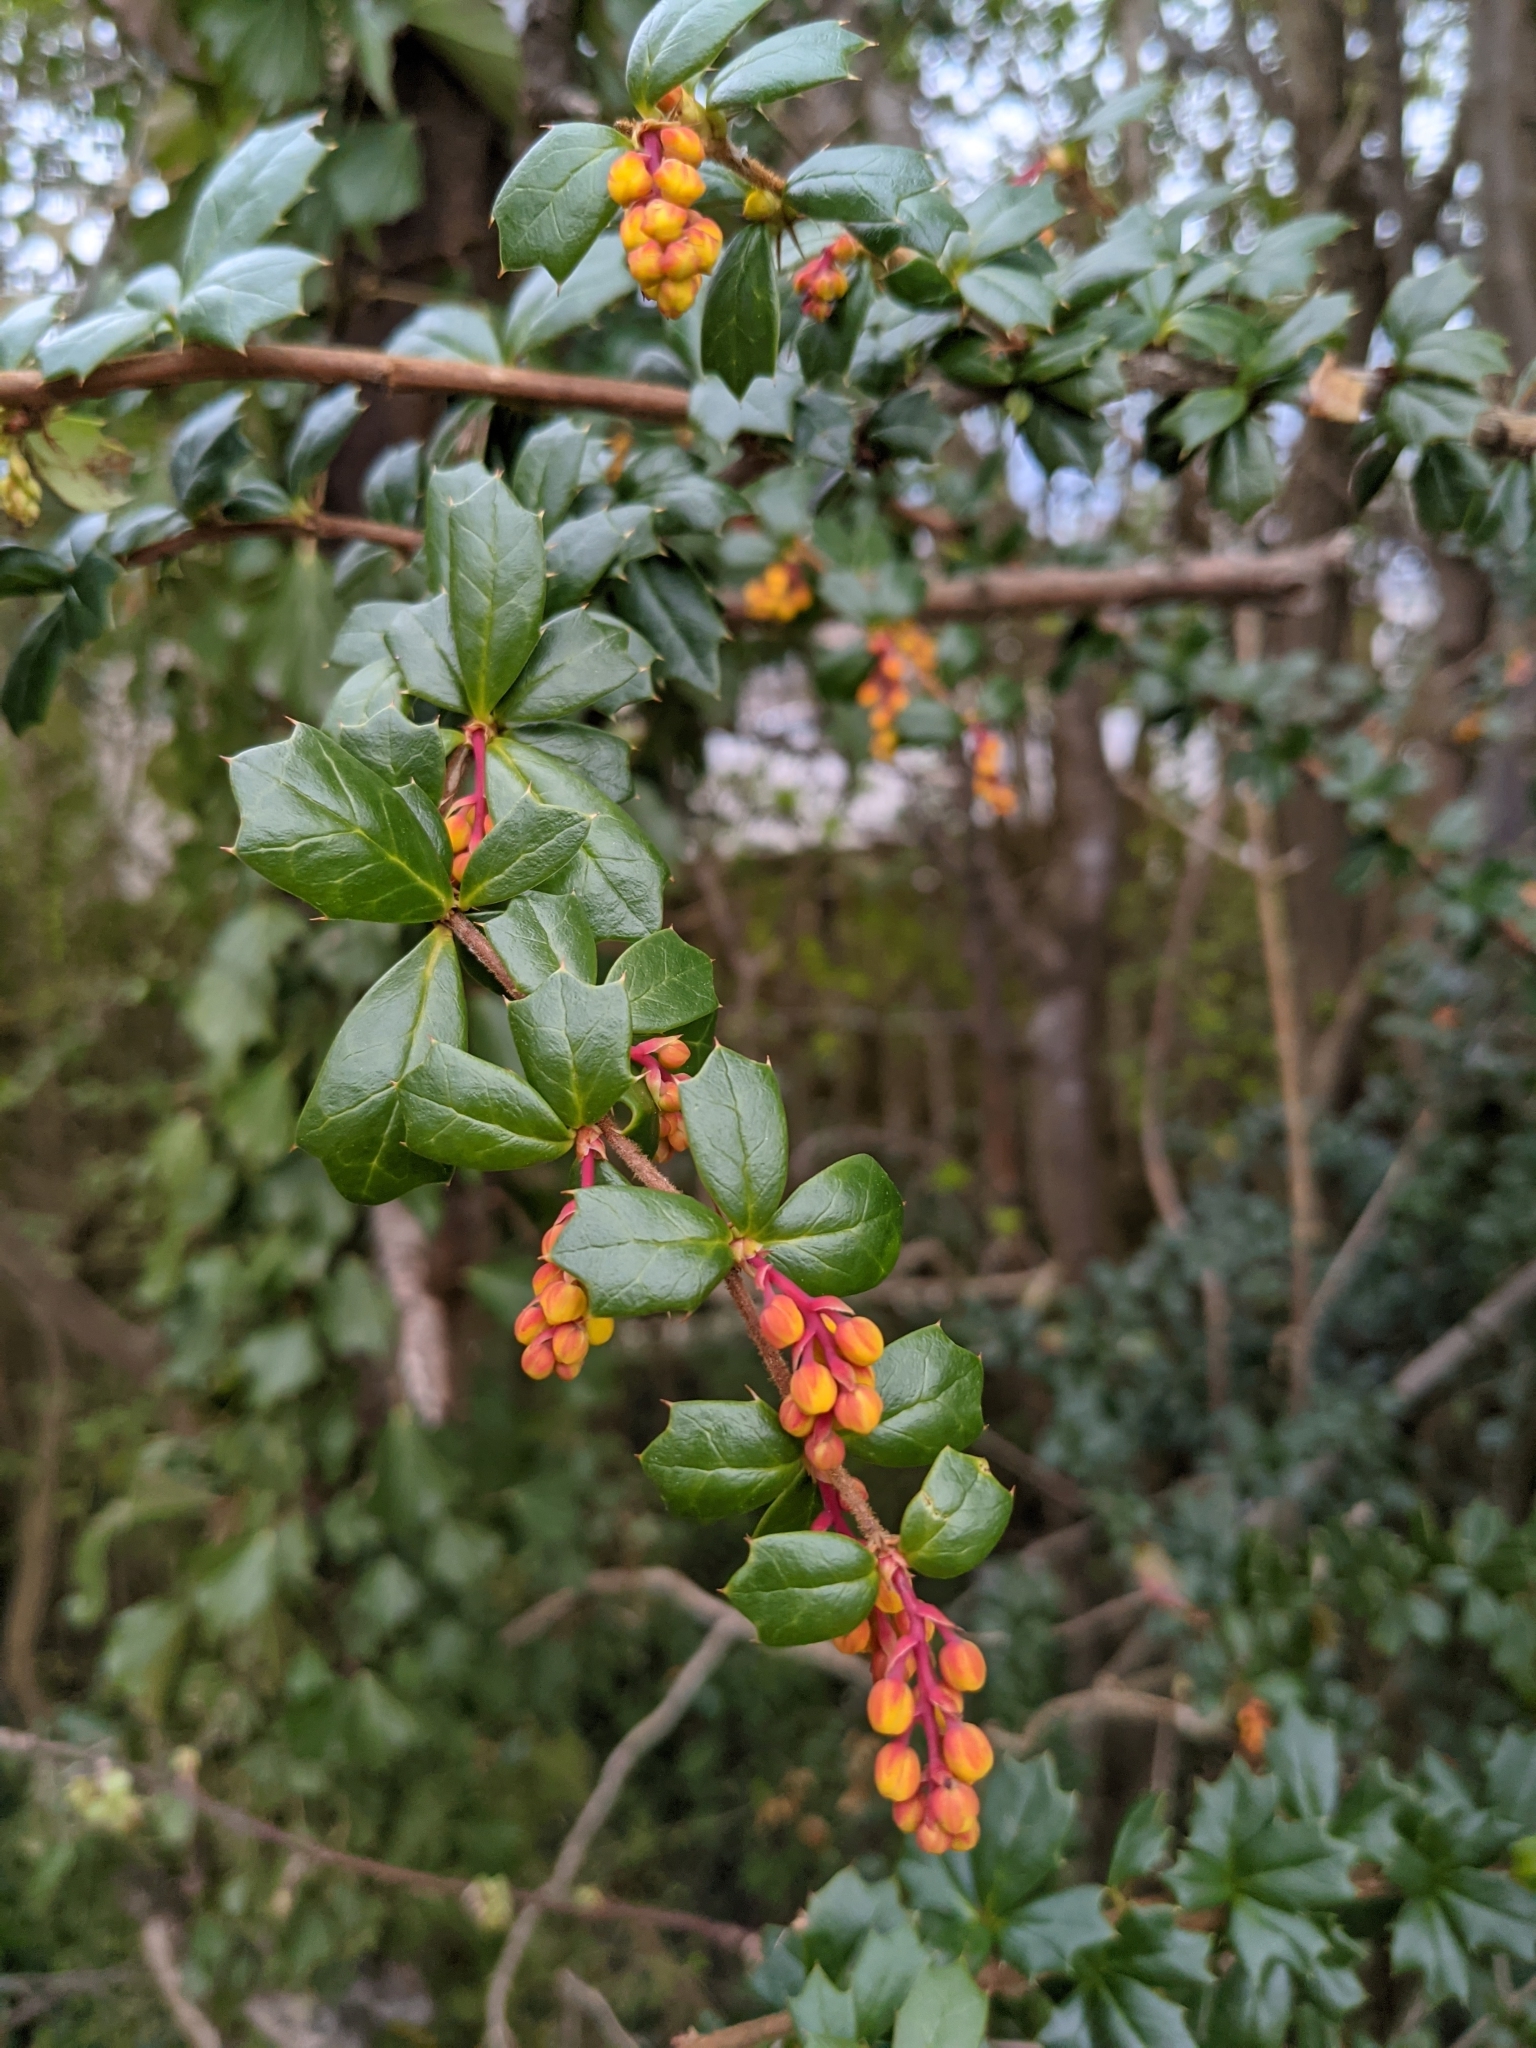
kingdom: Plantae
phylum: Tracheophyta
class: Magnoliopsida
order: Ranunculales
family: Berberidaceae
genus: Berberis
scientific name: Berberis darwinii
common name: Darwin's barberry
